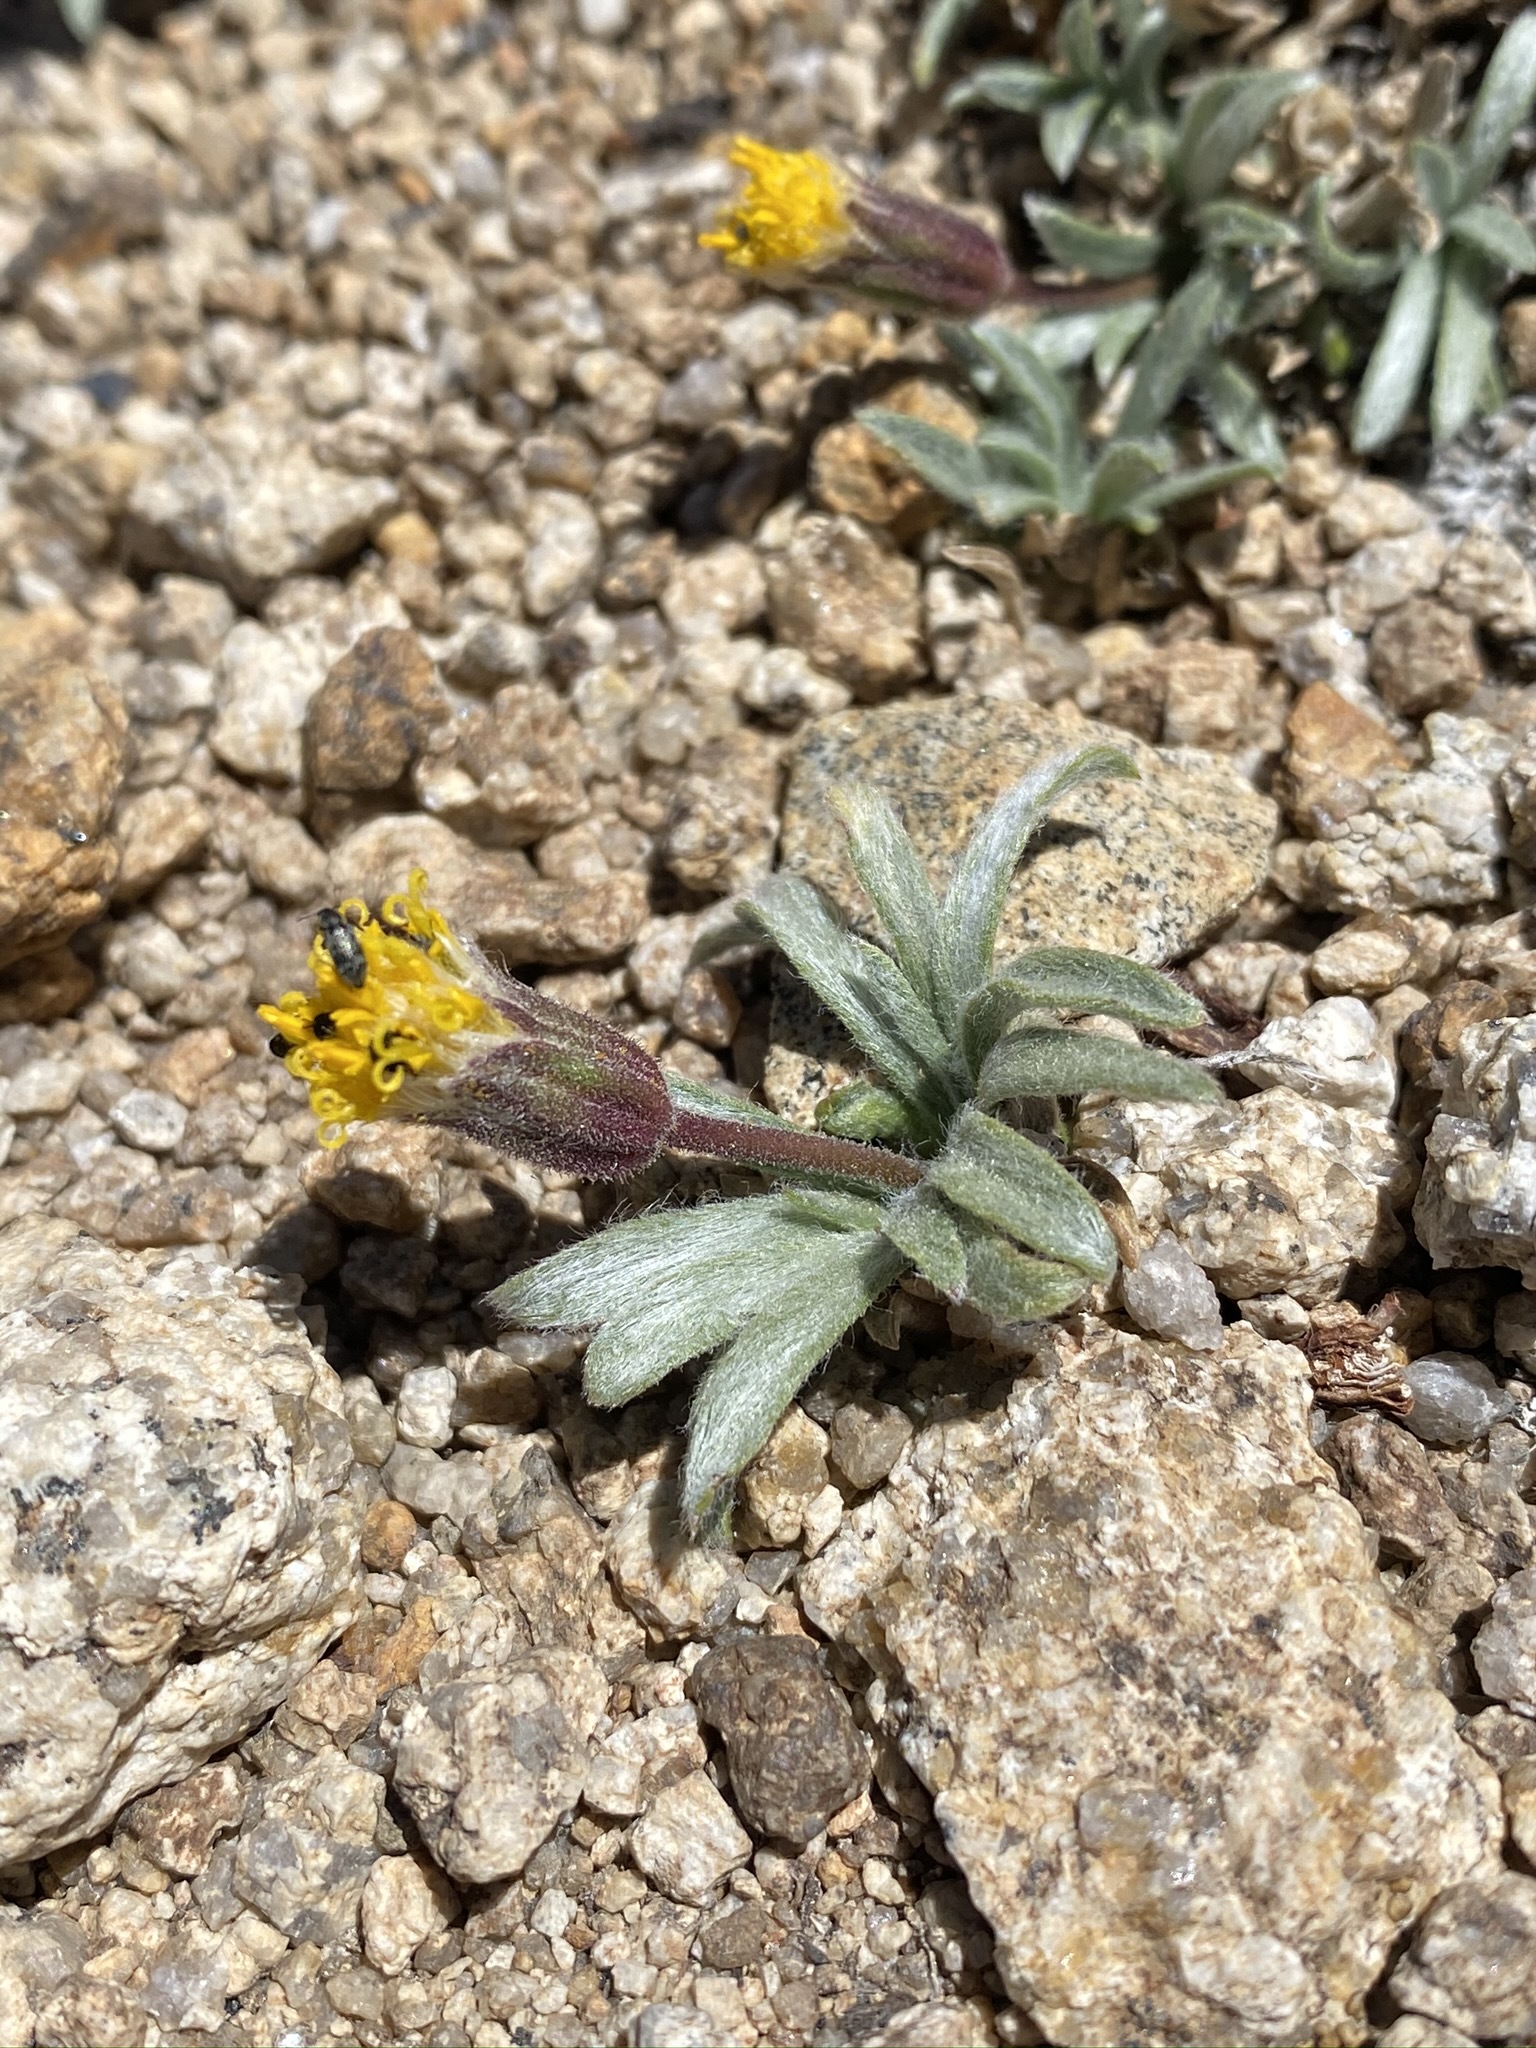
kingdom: Plantae
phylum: Tracheophyta
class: Magnoliopsida
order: Asterales
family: Asteraceae
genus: Raillardella
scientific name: Raillardella argentea
